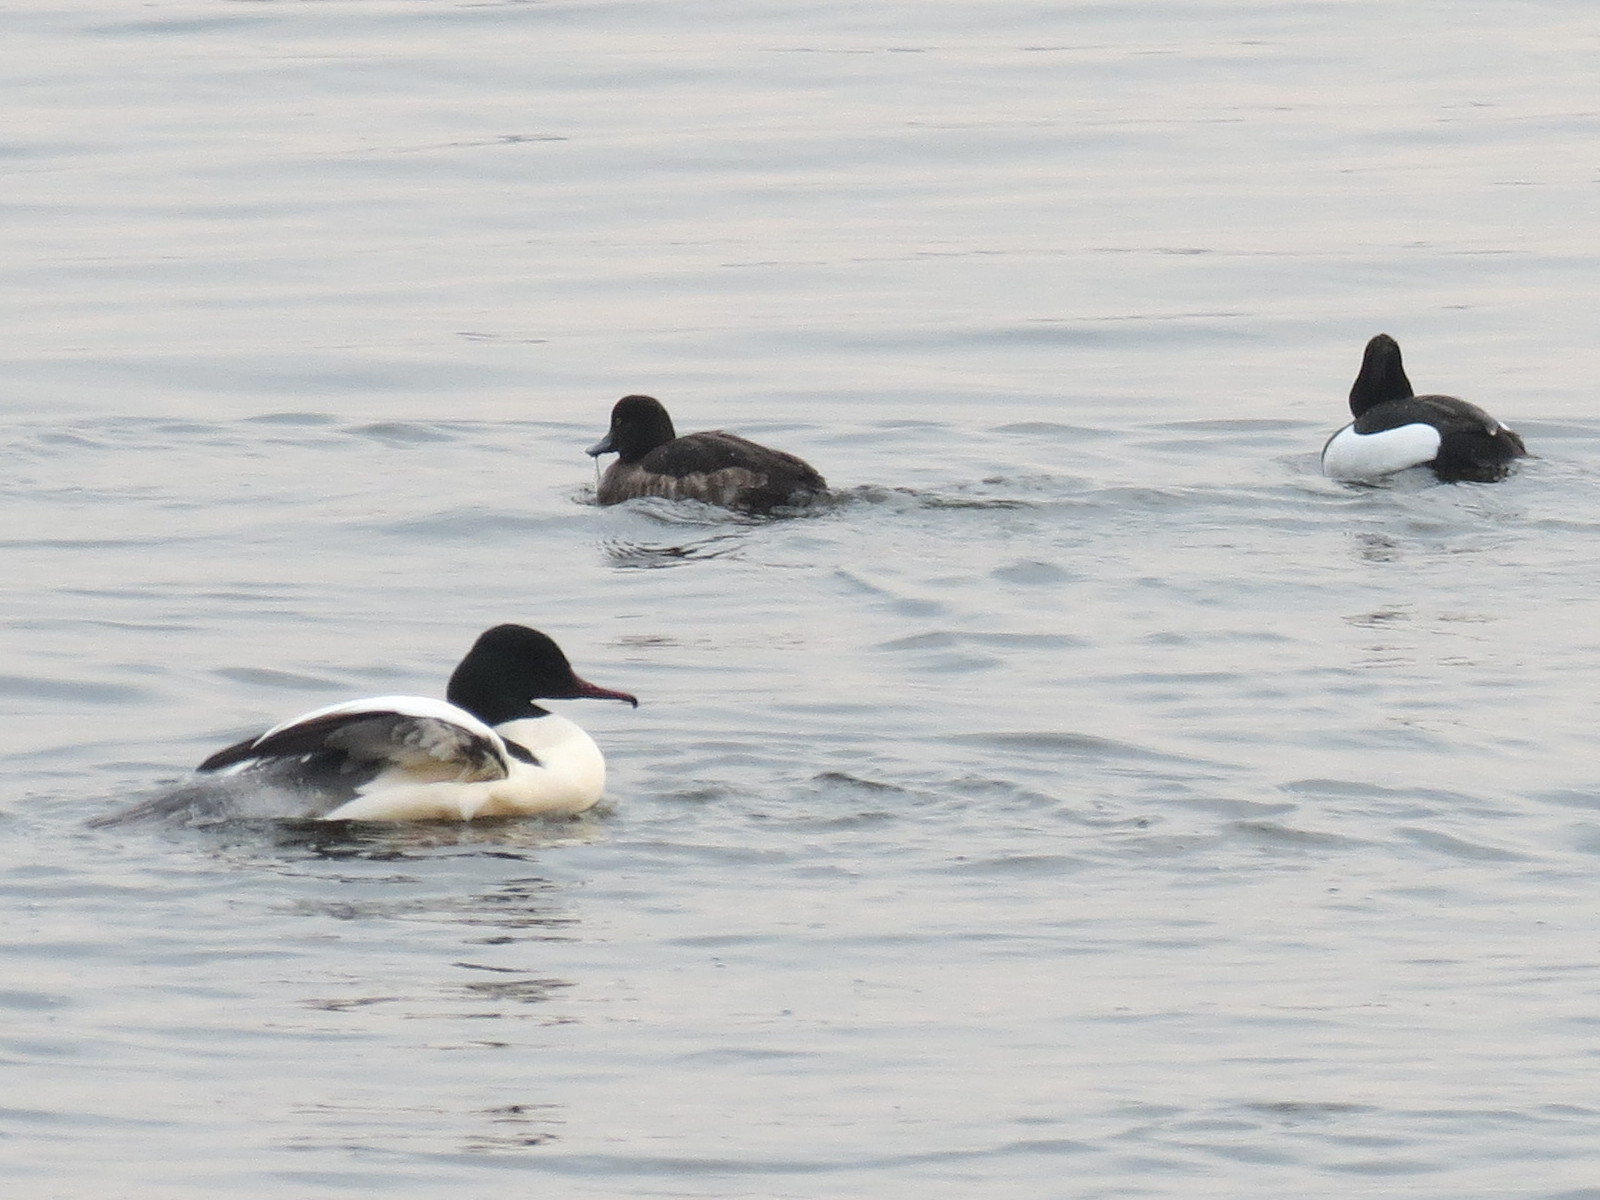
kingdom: Animalia
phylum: Chordata
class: Aves
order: Anseriformes
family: Anatidae
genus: Mergus
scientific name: Mergus merganser
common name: Common merganser
